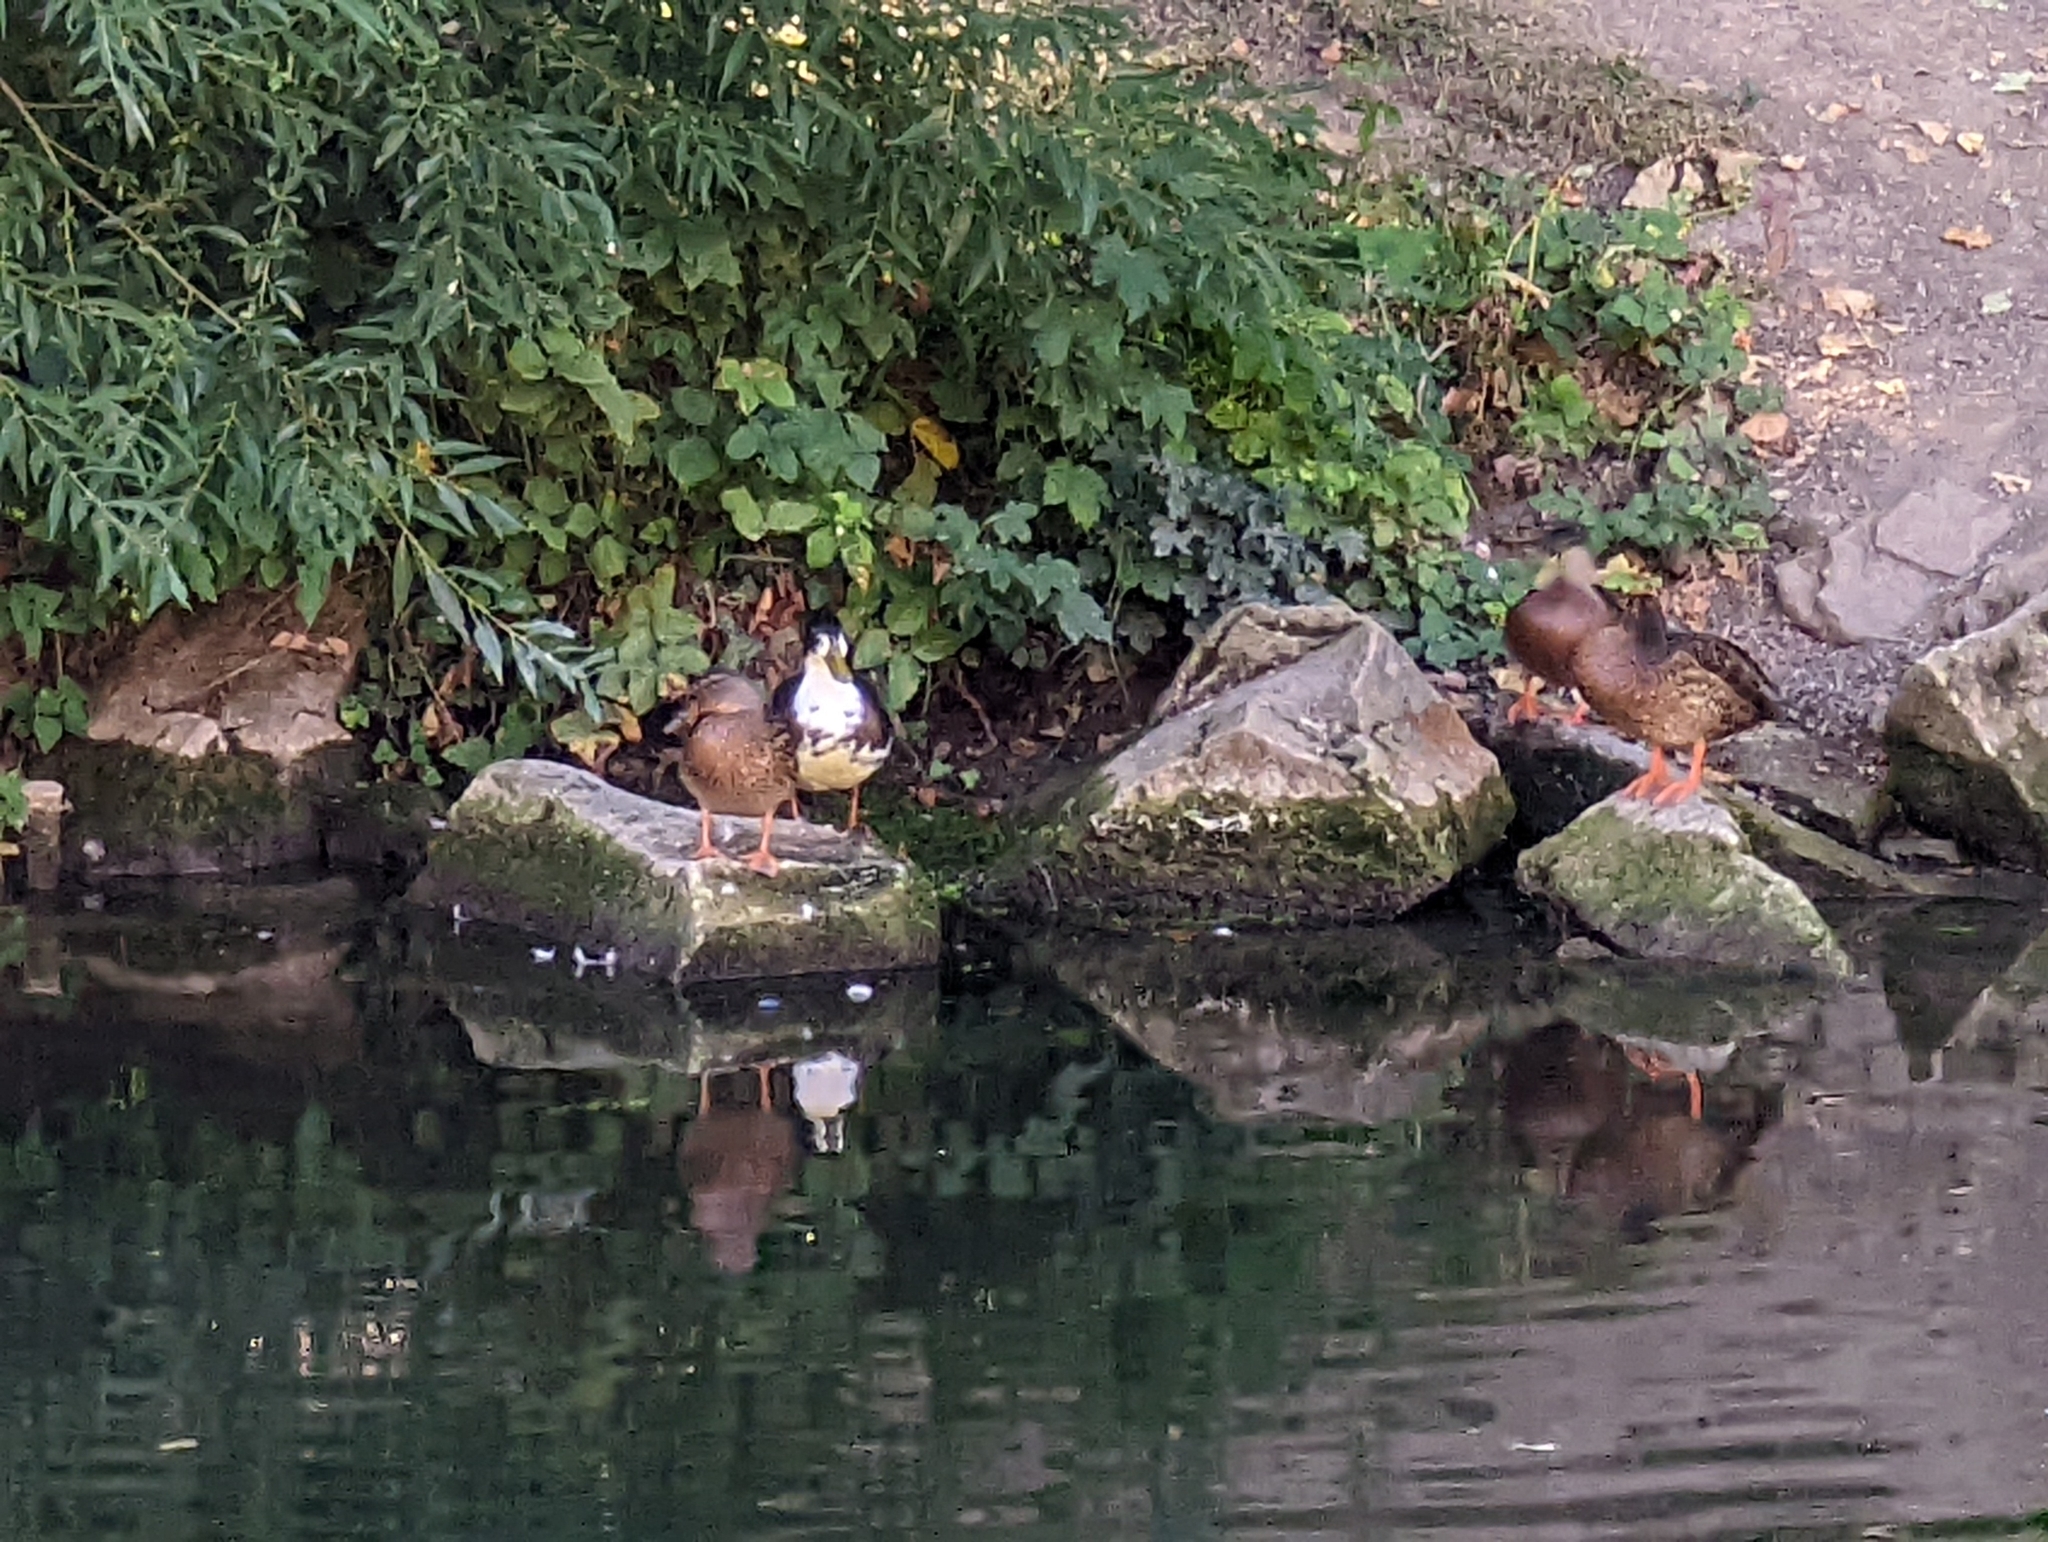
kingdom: Animalia
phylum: Chordata
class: Aves
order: Anseriformes
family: Anatidae
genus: Anas
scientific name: Anas platyrhynchos
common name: Mallard
